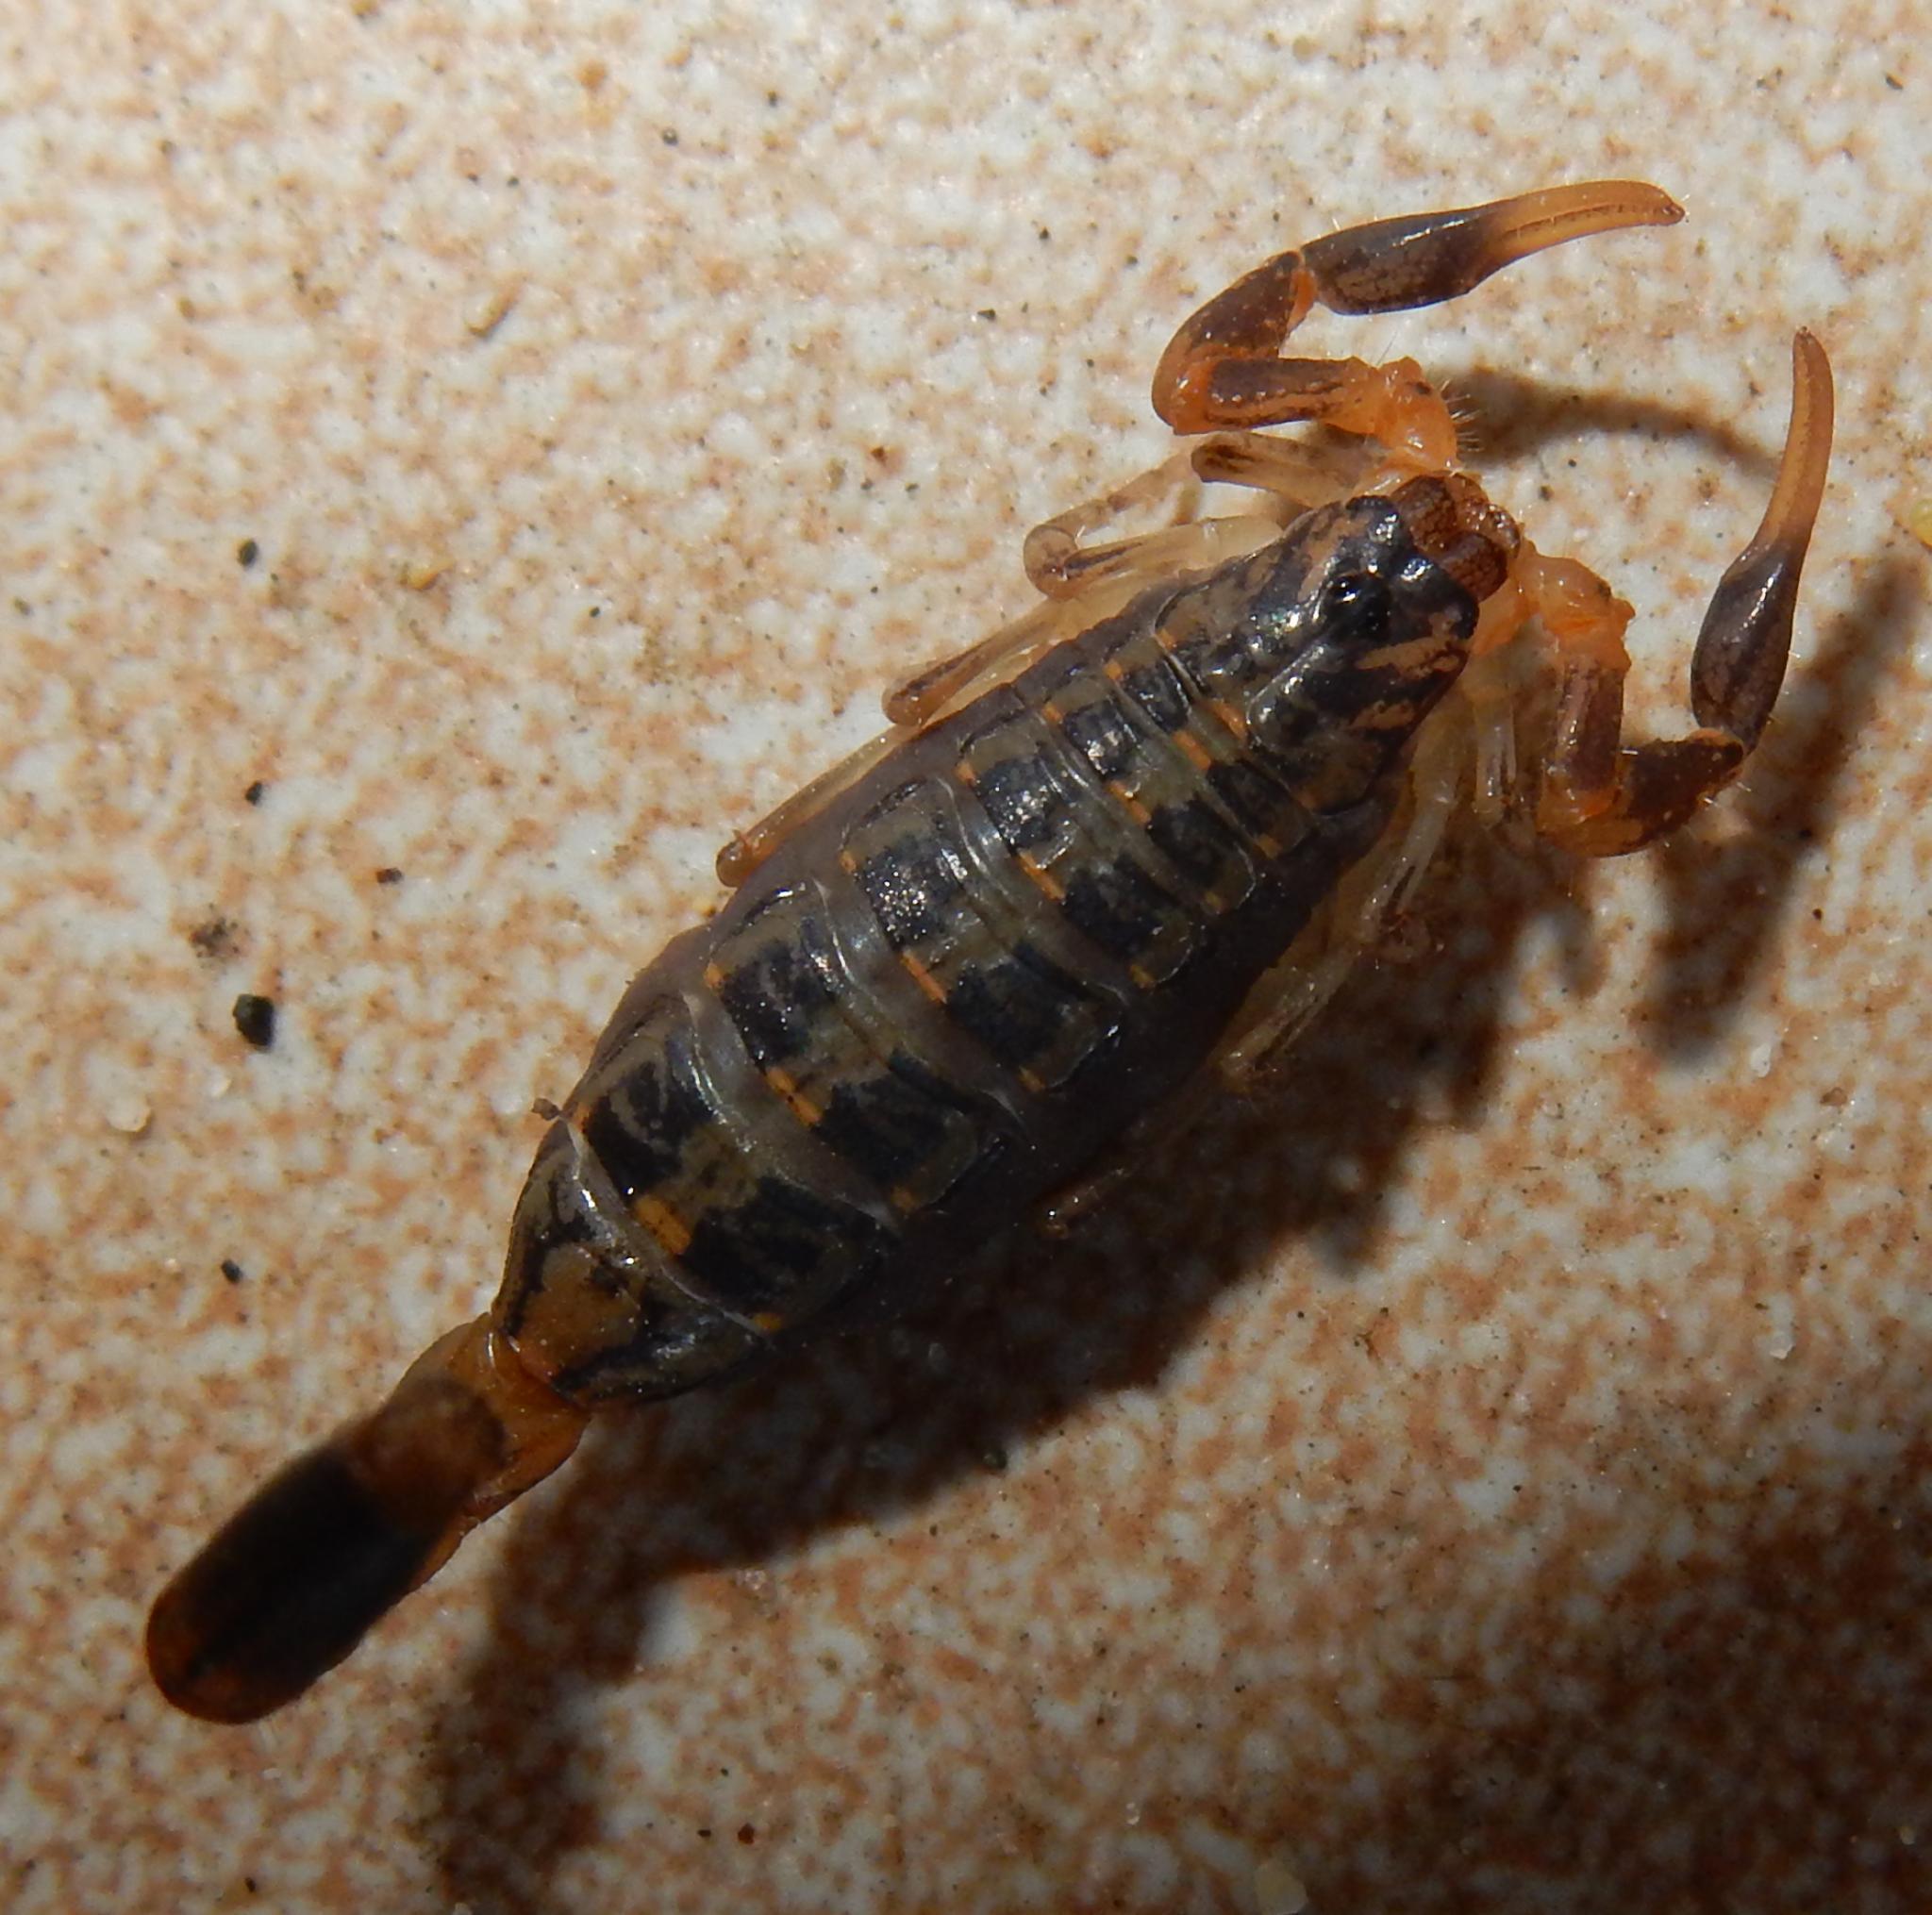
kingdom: Animalia
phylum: Arthropoda
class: Arachnida
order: Scorpiones
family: Buthidae
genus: Uroplectes
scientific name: Uroplectes formosus
